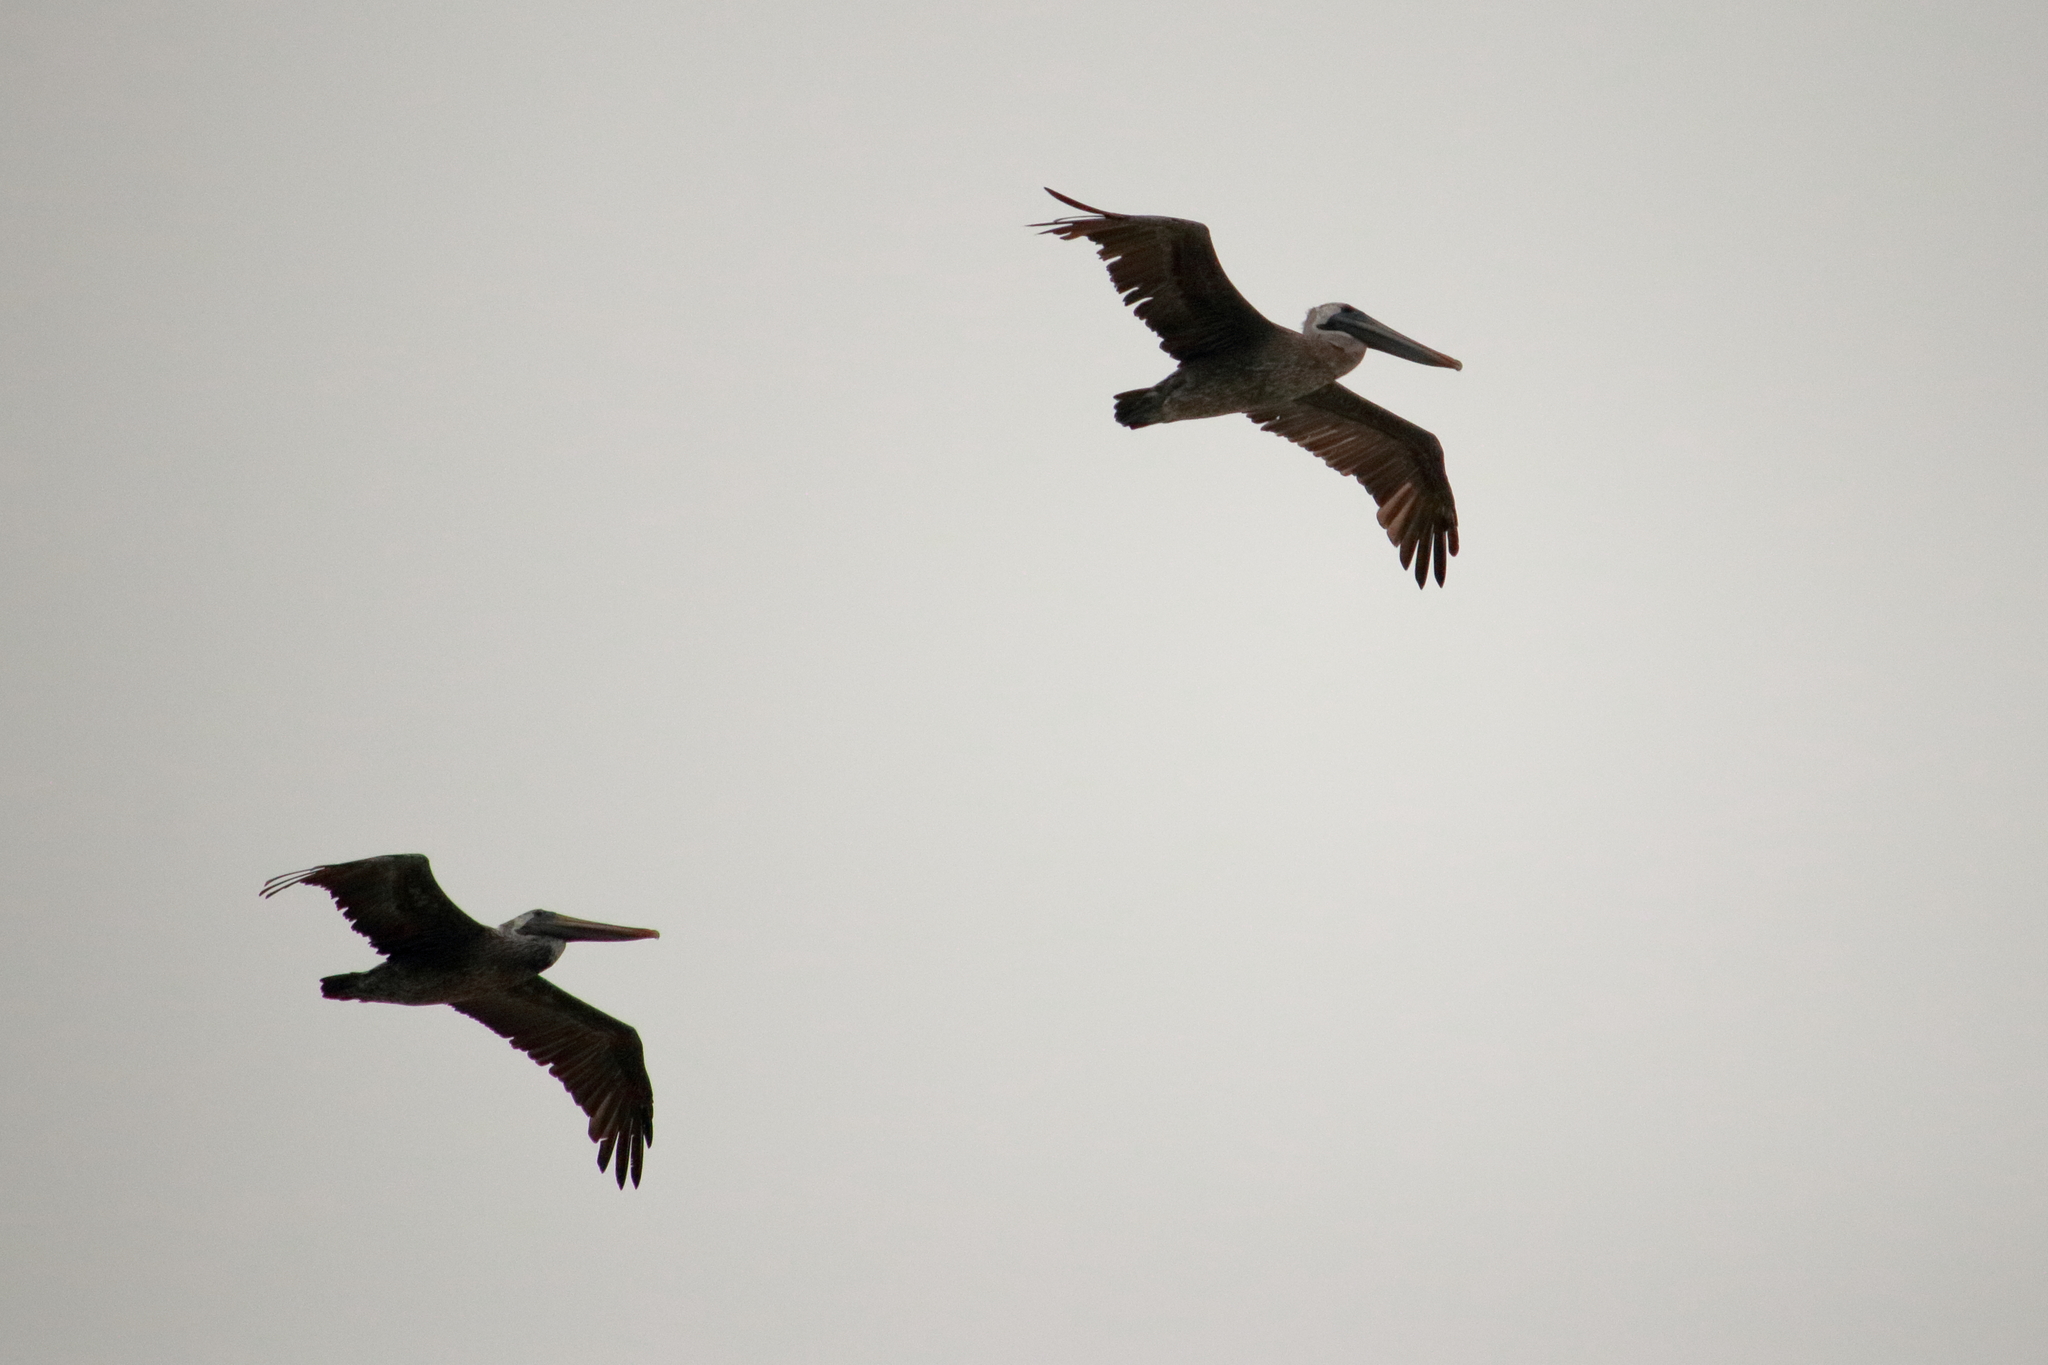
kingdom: Animalia
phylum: Chordata
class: Aves
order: Pelecaniformes
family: Pelecanidae
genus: Pelecanus
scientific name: Pelecanus occidentalis
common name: Brown pelican
